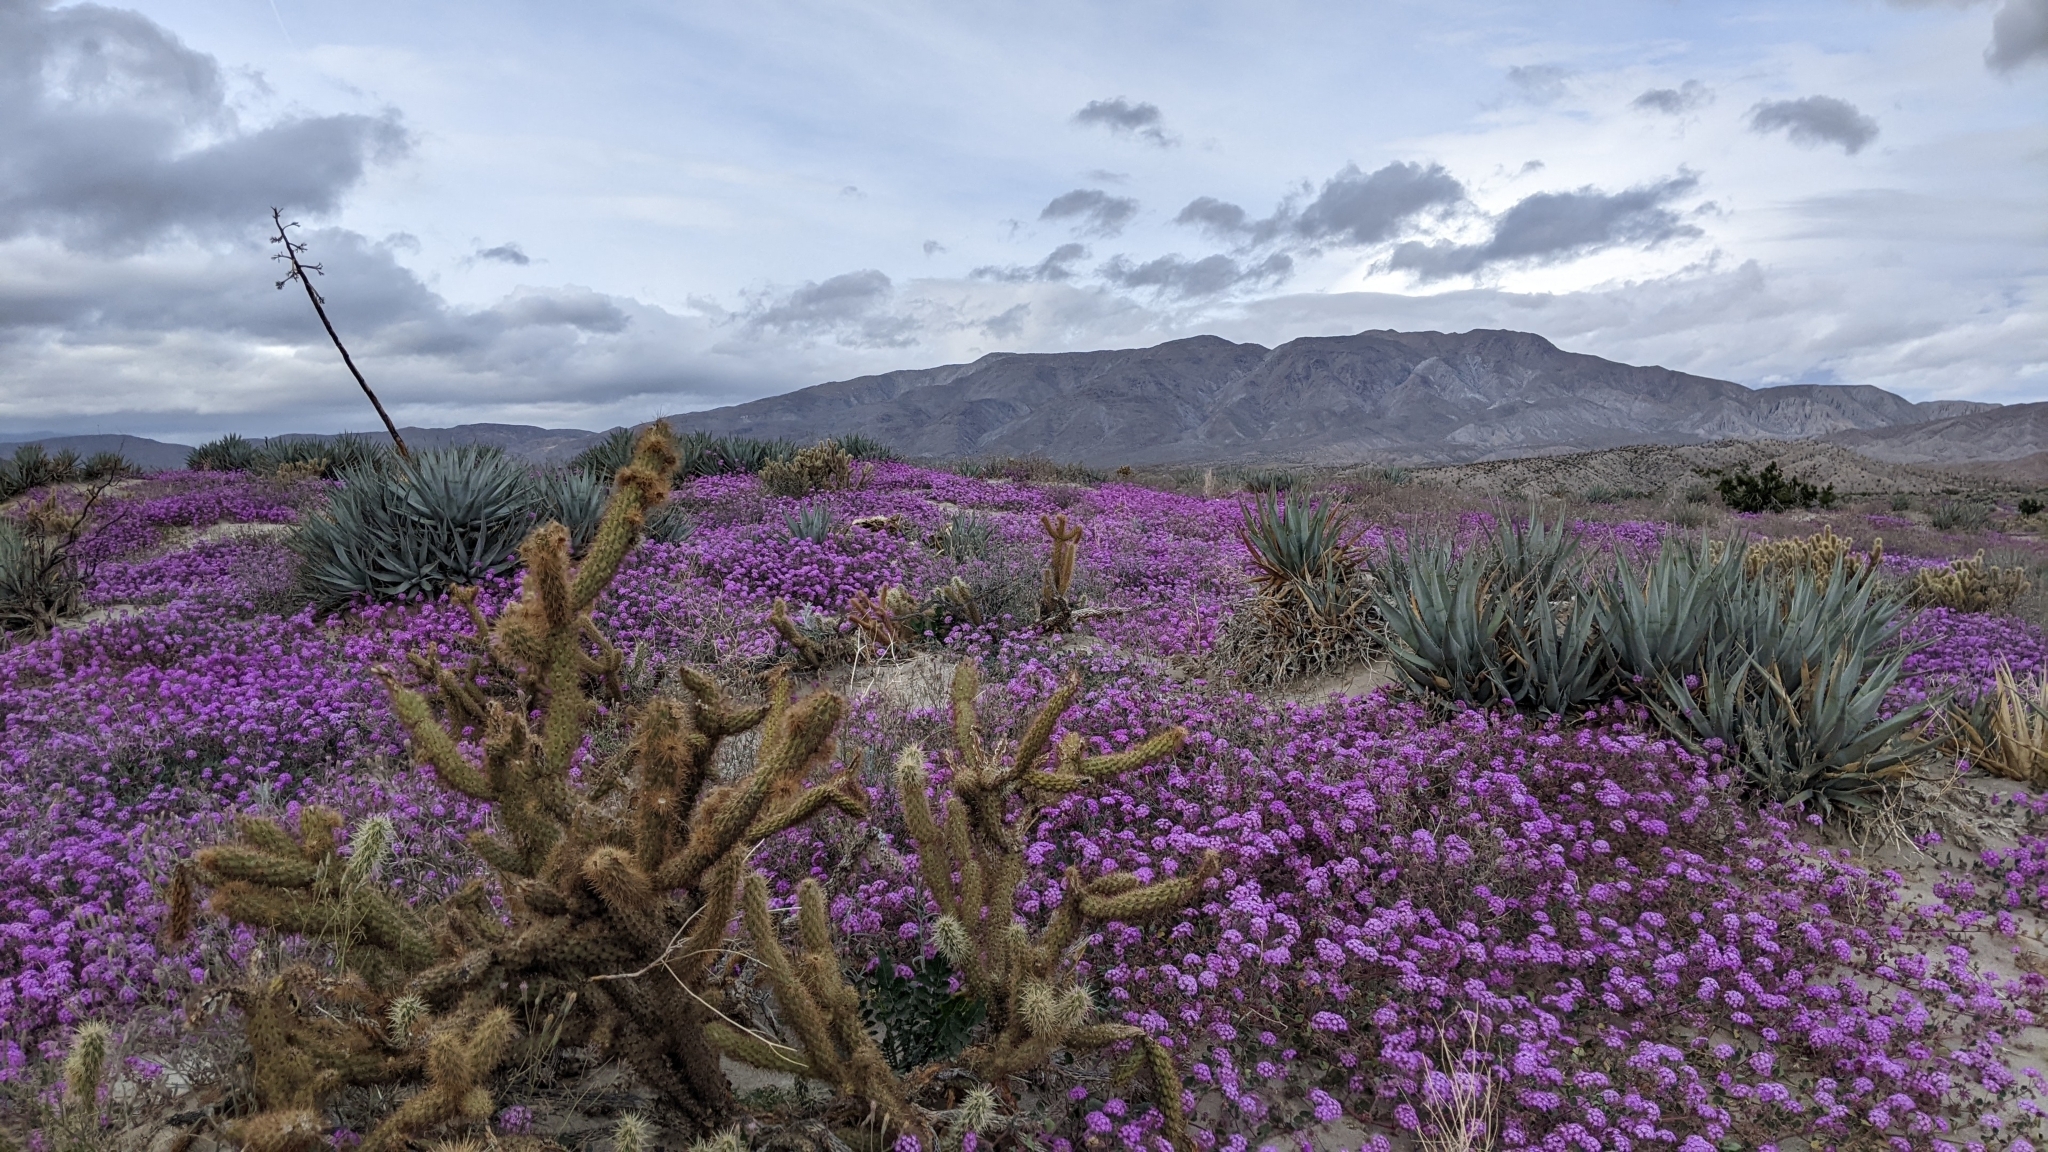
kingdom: Plantae
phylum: Tracheophyta
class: Magnoliopsida
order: Caryophyllales
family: Nyctaginaceae
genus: Abronia
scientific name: Abronia villosa
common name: Desert sand-verbena
